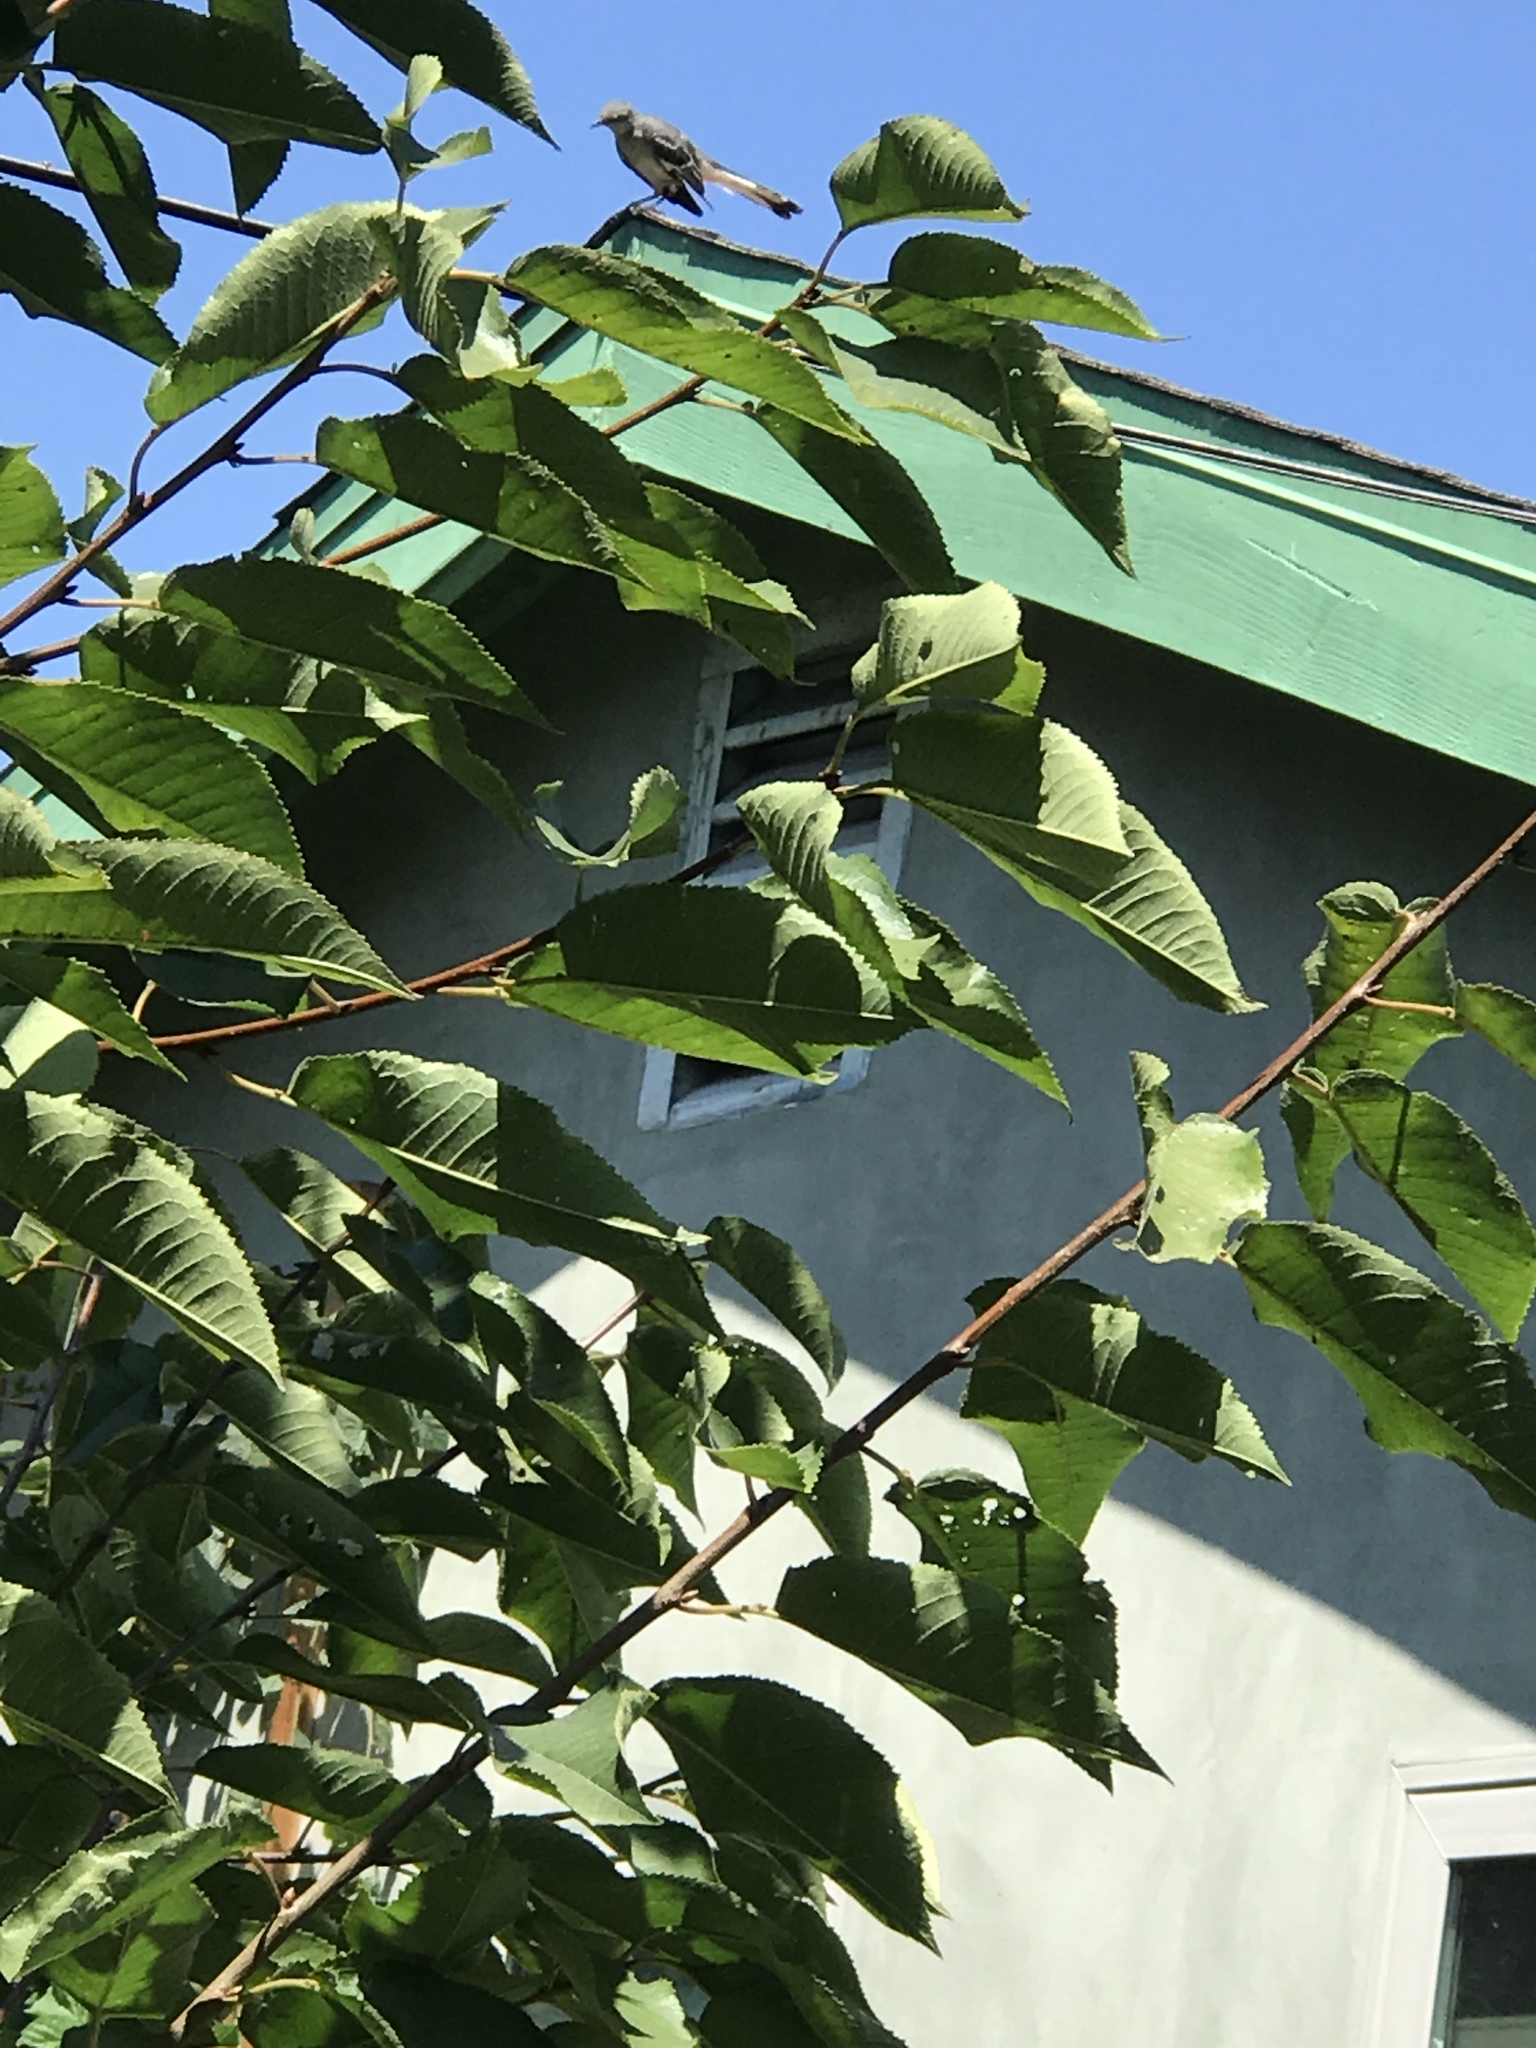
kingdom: Animalia
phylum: Chordata
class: Aves
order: Passeriformes
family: Mimidae
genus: Mimus
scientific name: Mimus polyglottos
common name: Northern mockingbird
